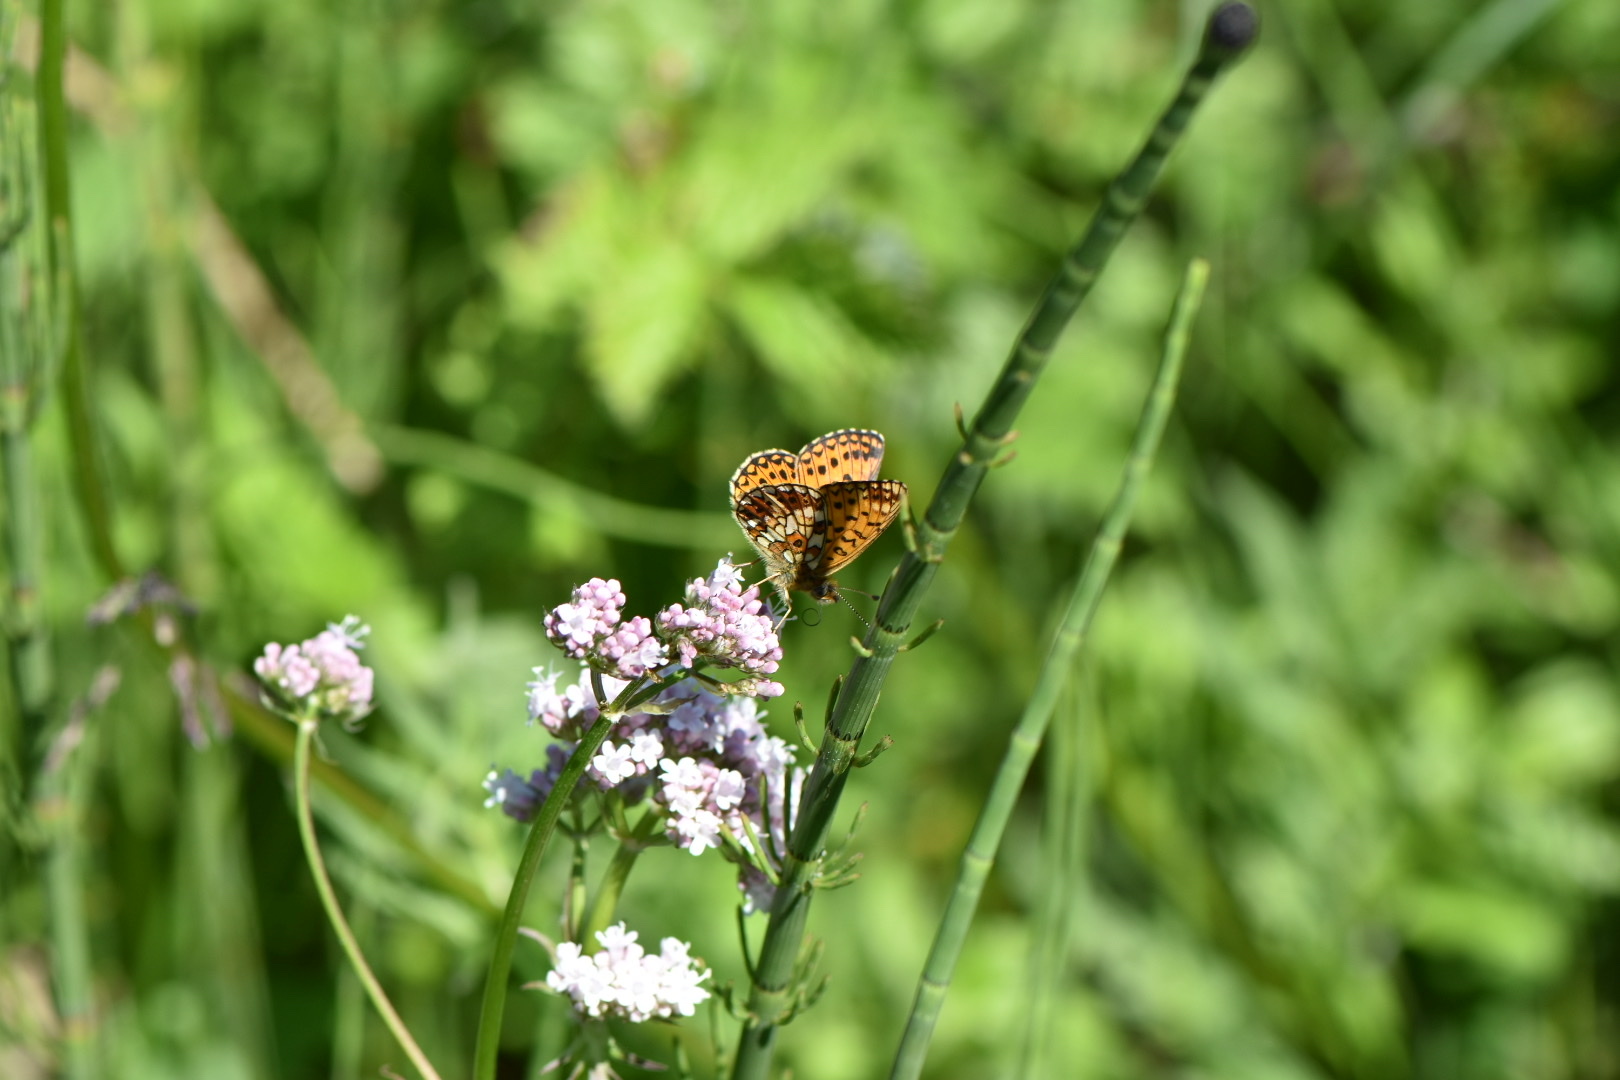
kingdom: Animalia
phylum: Arthropoda
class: Insecta
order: Lepidoptera
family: Nymphalidae
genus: Boloria
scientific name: Boloria selene
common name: Small pearl-bordered fritillary
